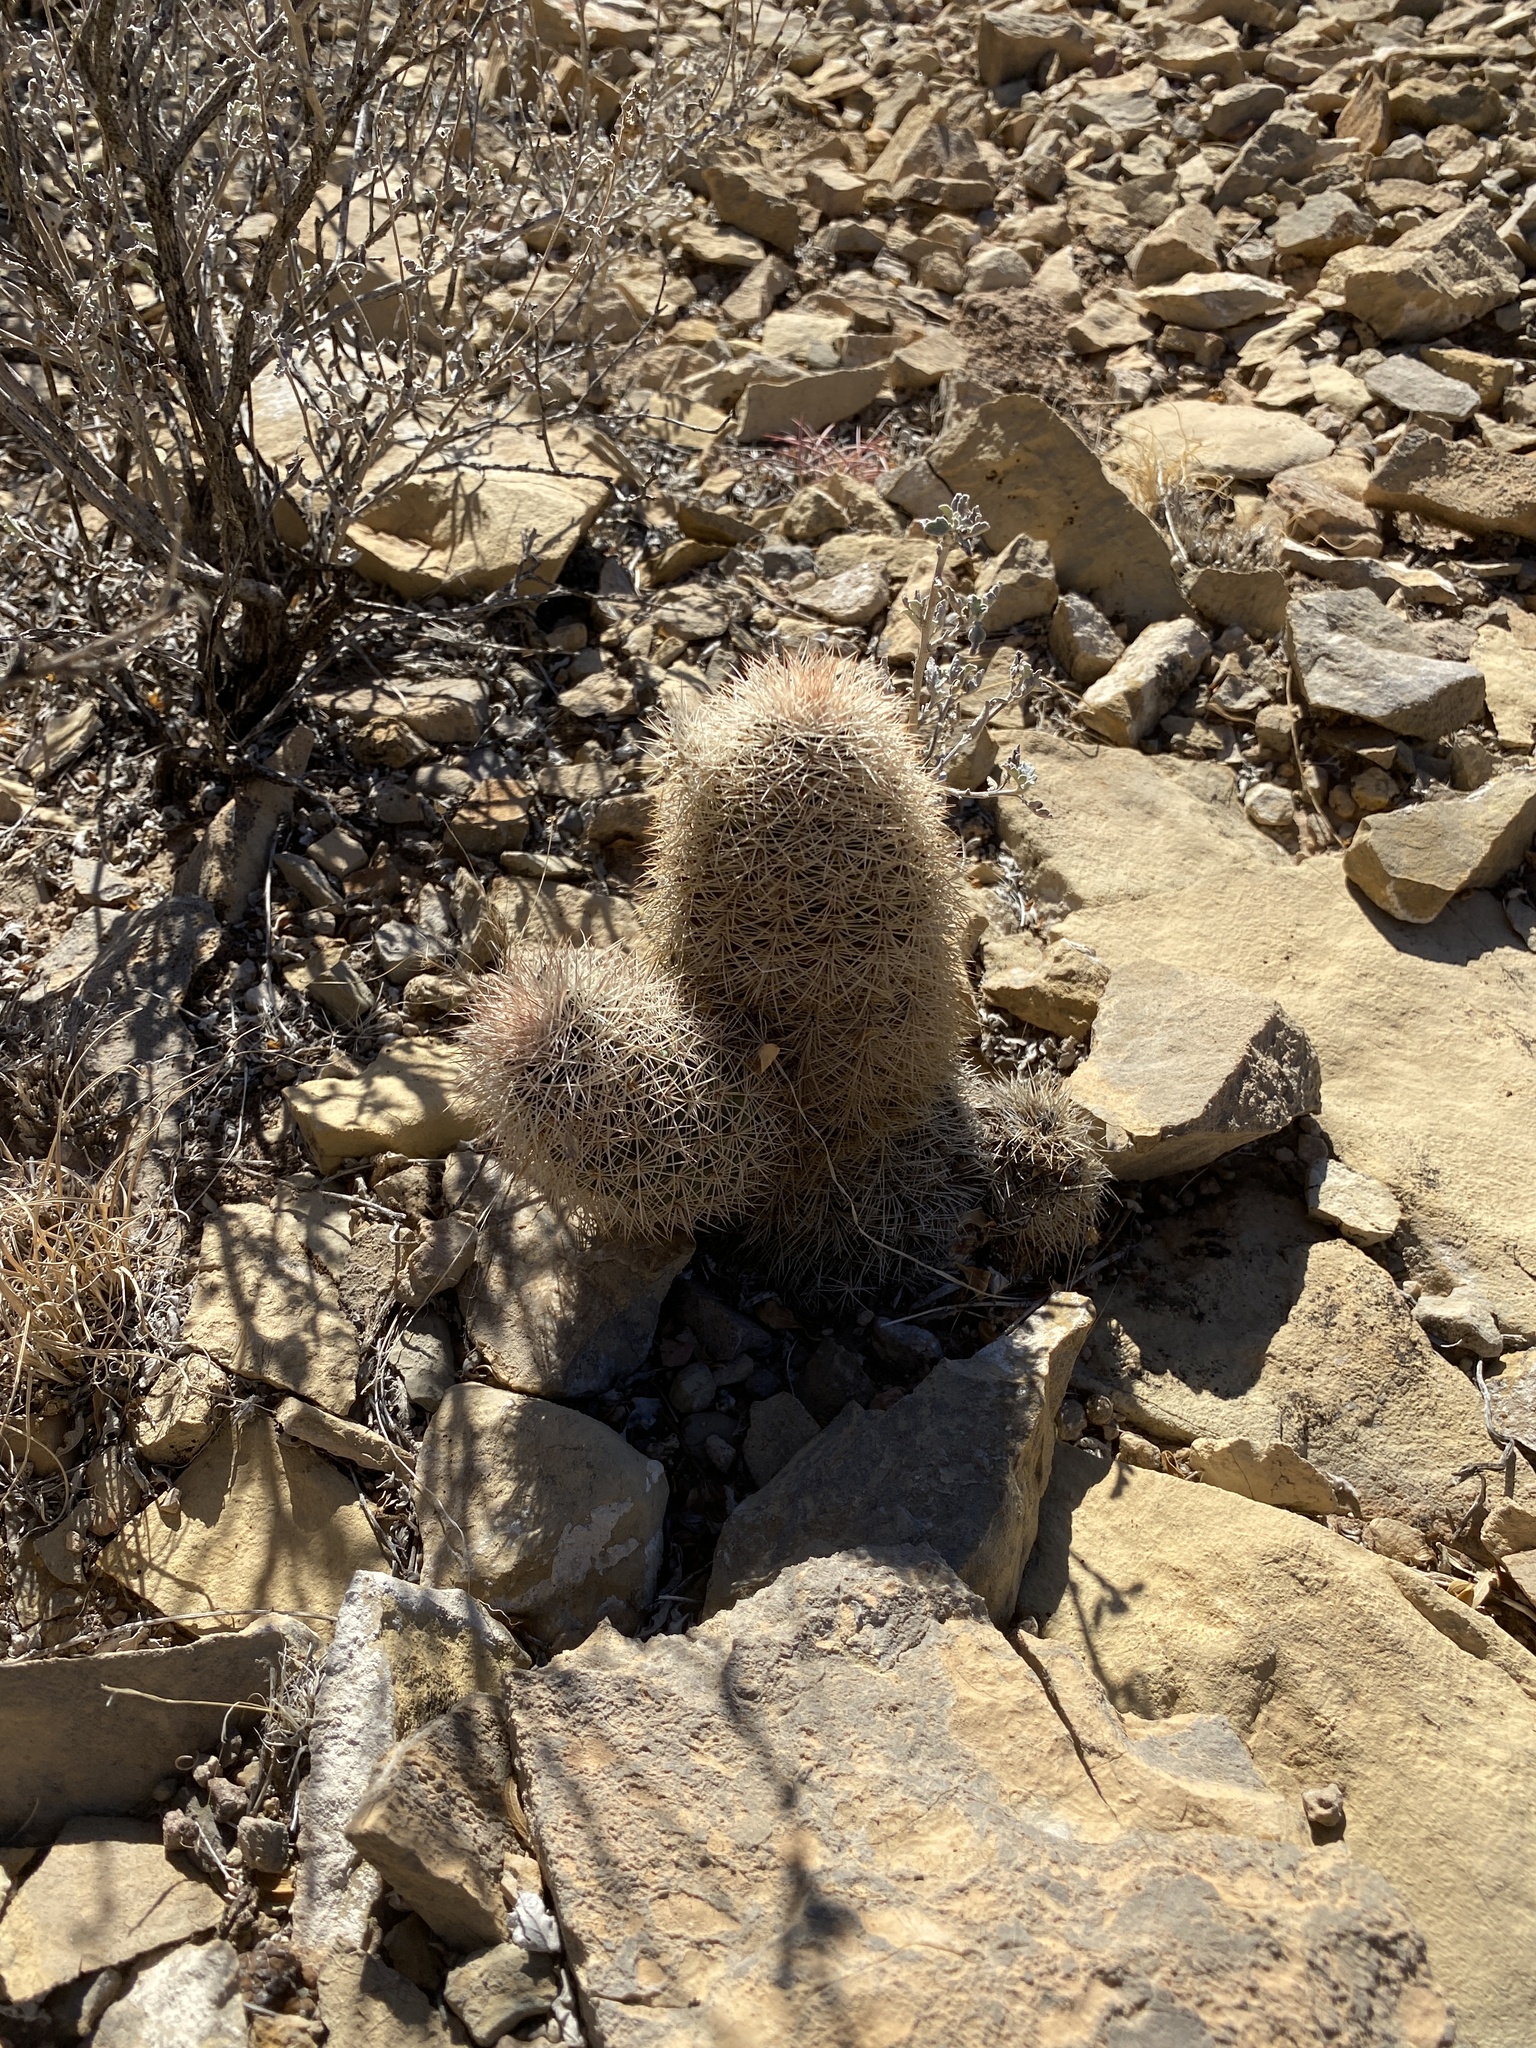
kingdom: Plantae
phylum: Tracheophyta
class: Magnoliopsida
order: Caryophyllales
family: Cactaceae
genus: Echinocereus
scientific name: Echinocereus dasyacanthus
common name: Spiny hedgehog cactus
